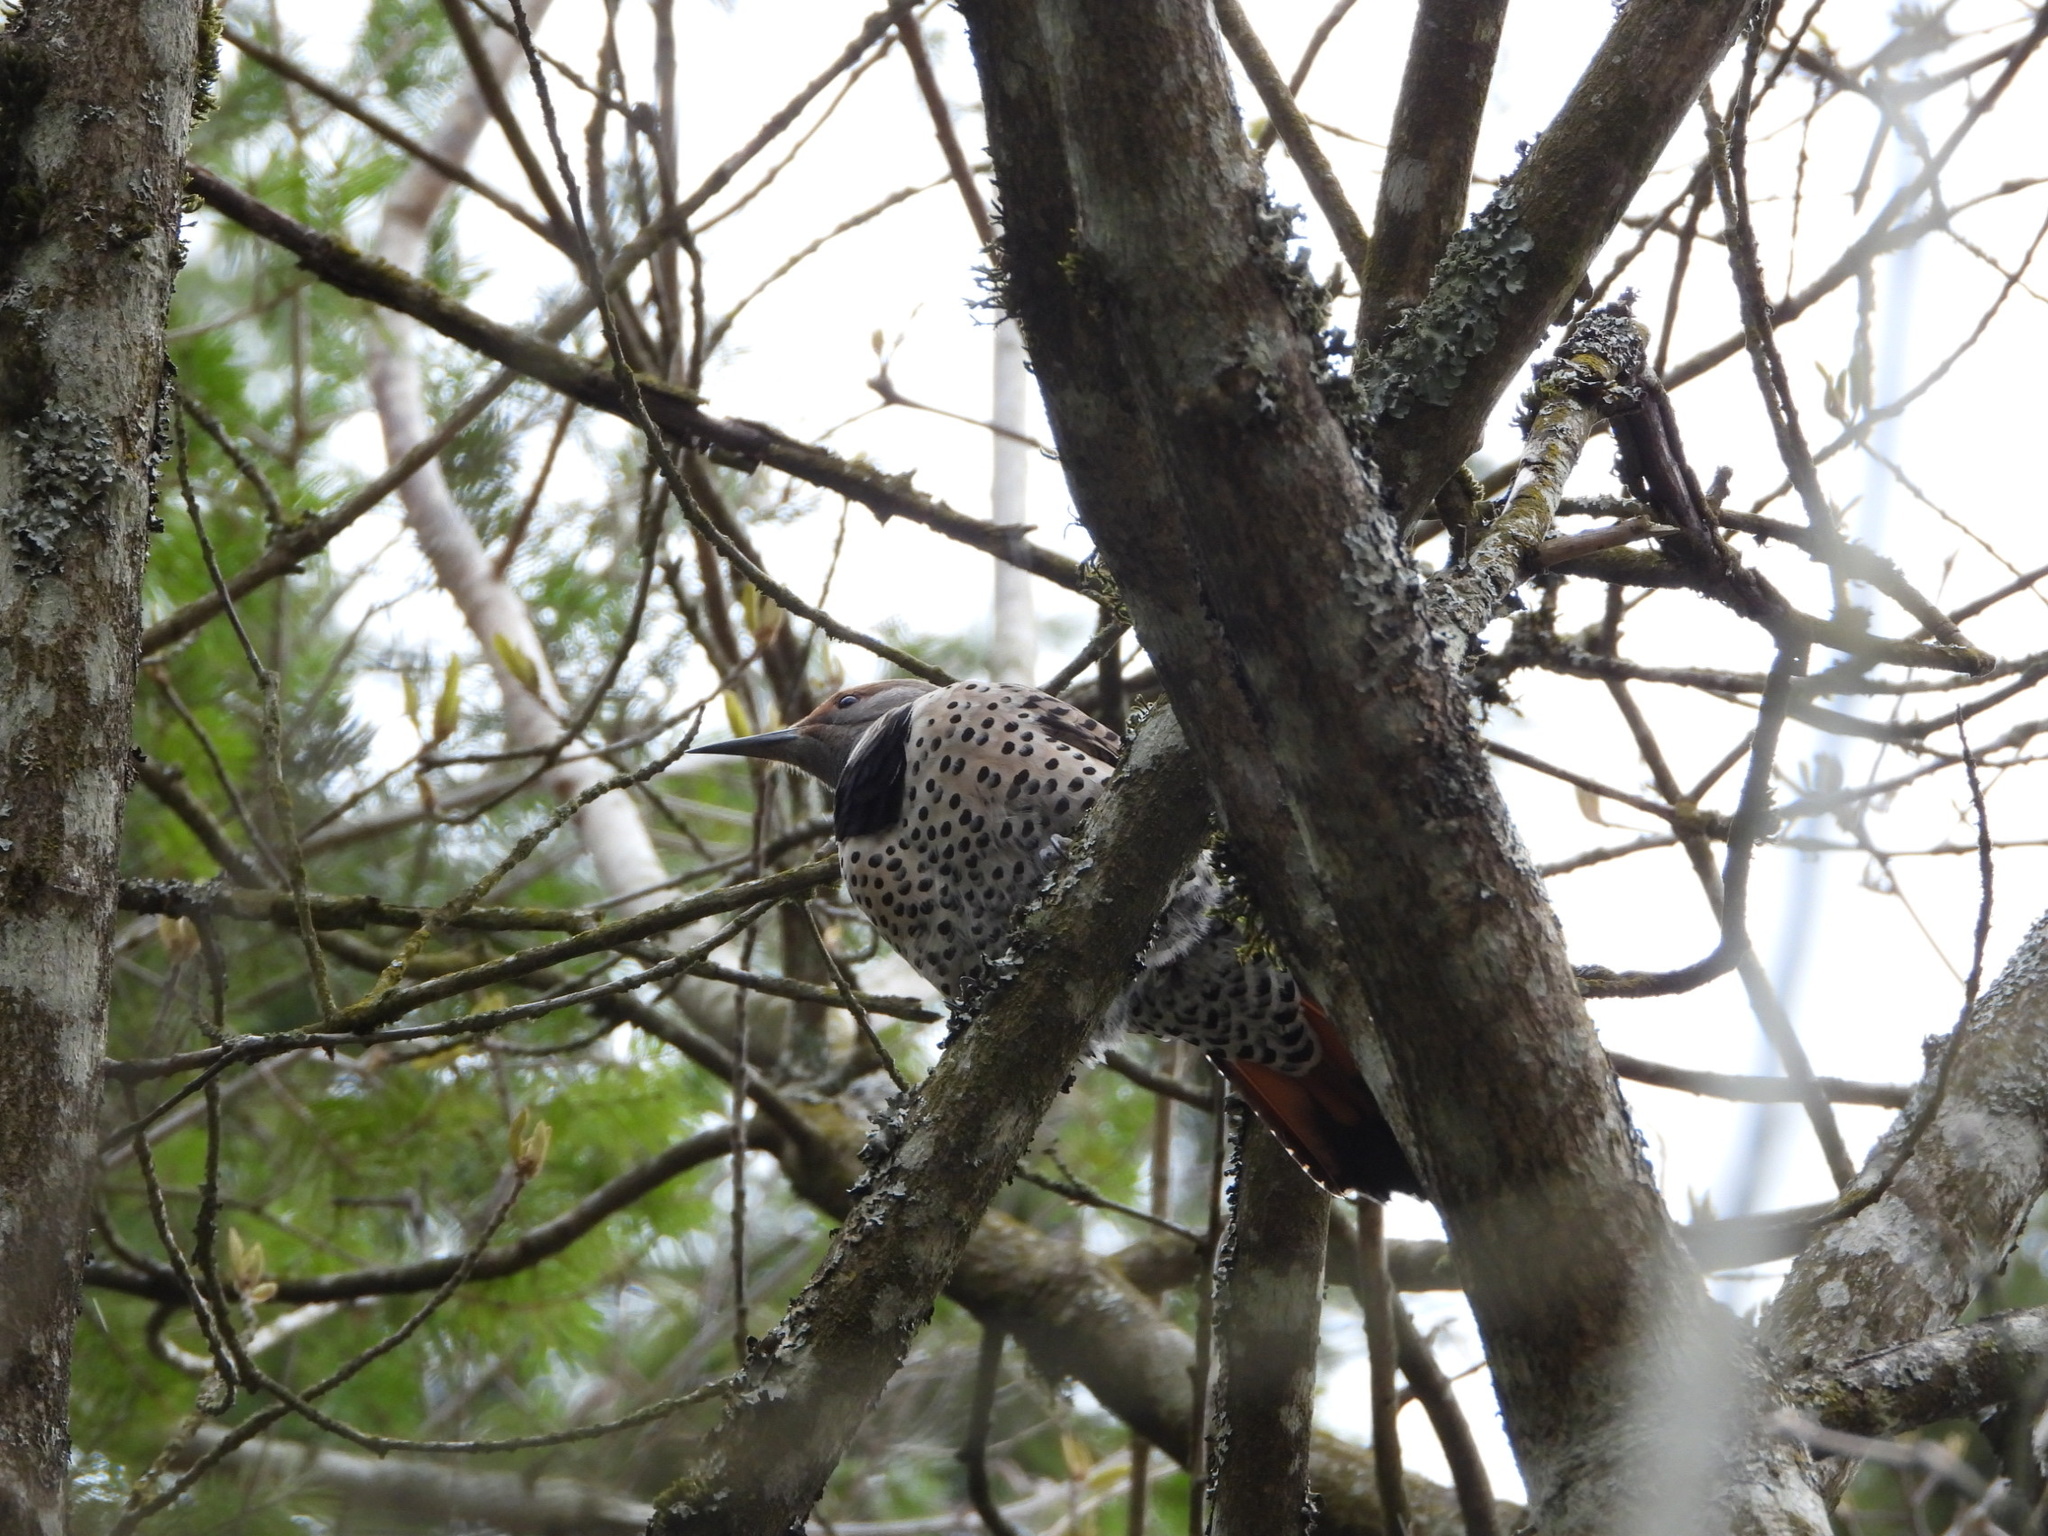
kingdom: Animalia
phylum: Chordata
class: Aves
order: Piciformes
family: Picidae
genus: Colaptes
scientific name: Colaptes auratus
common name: Northern flicker
